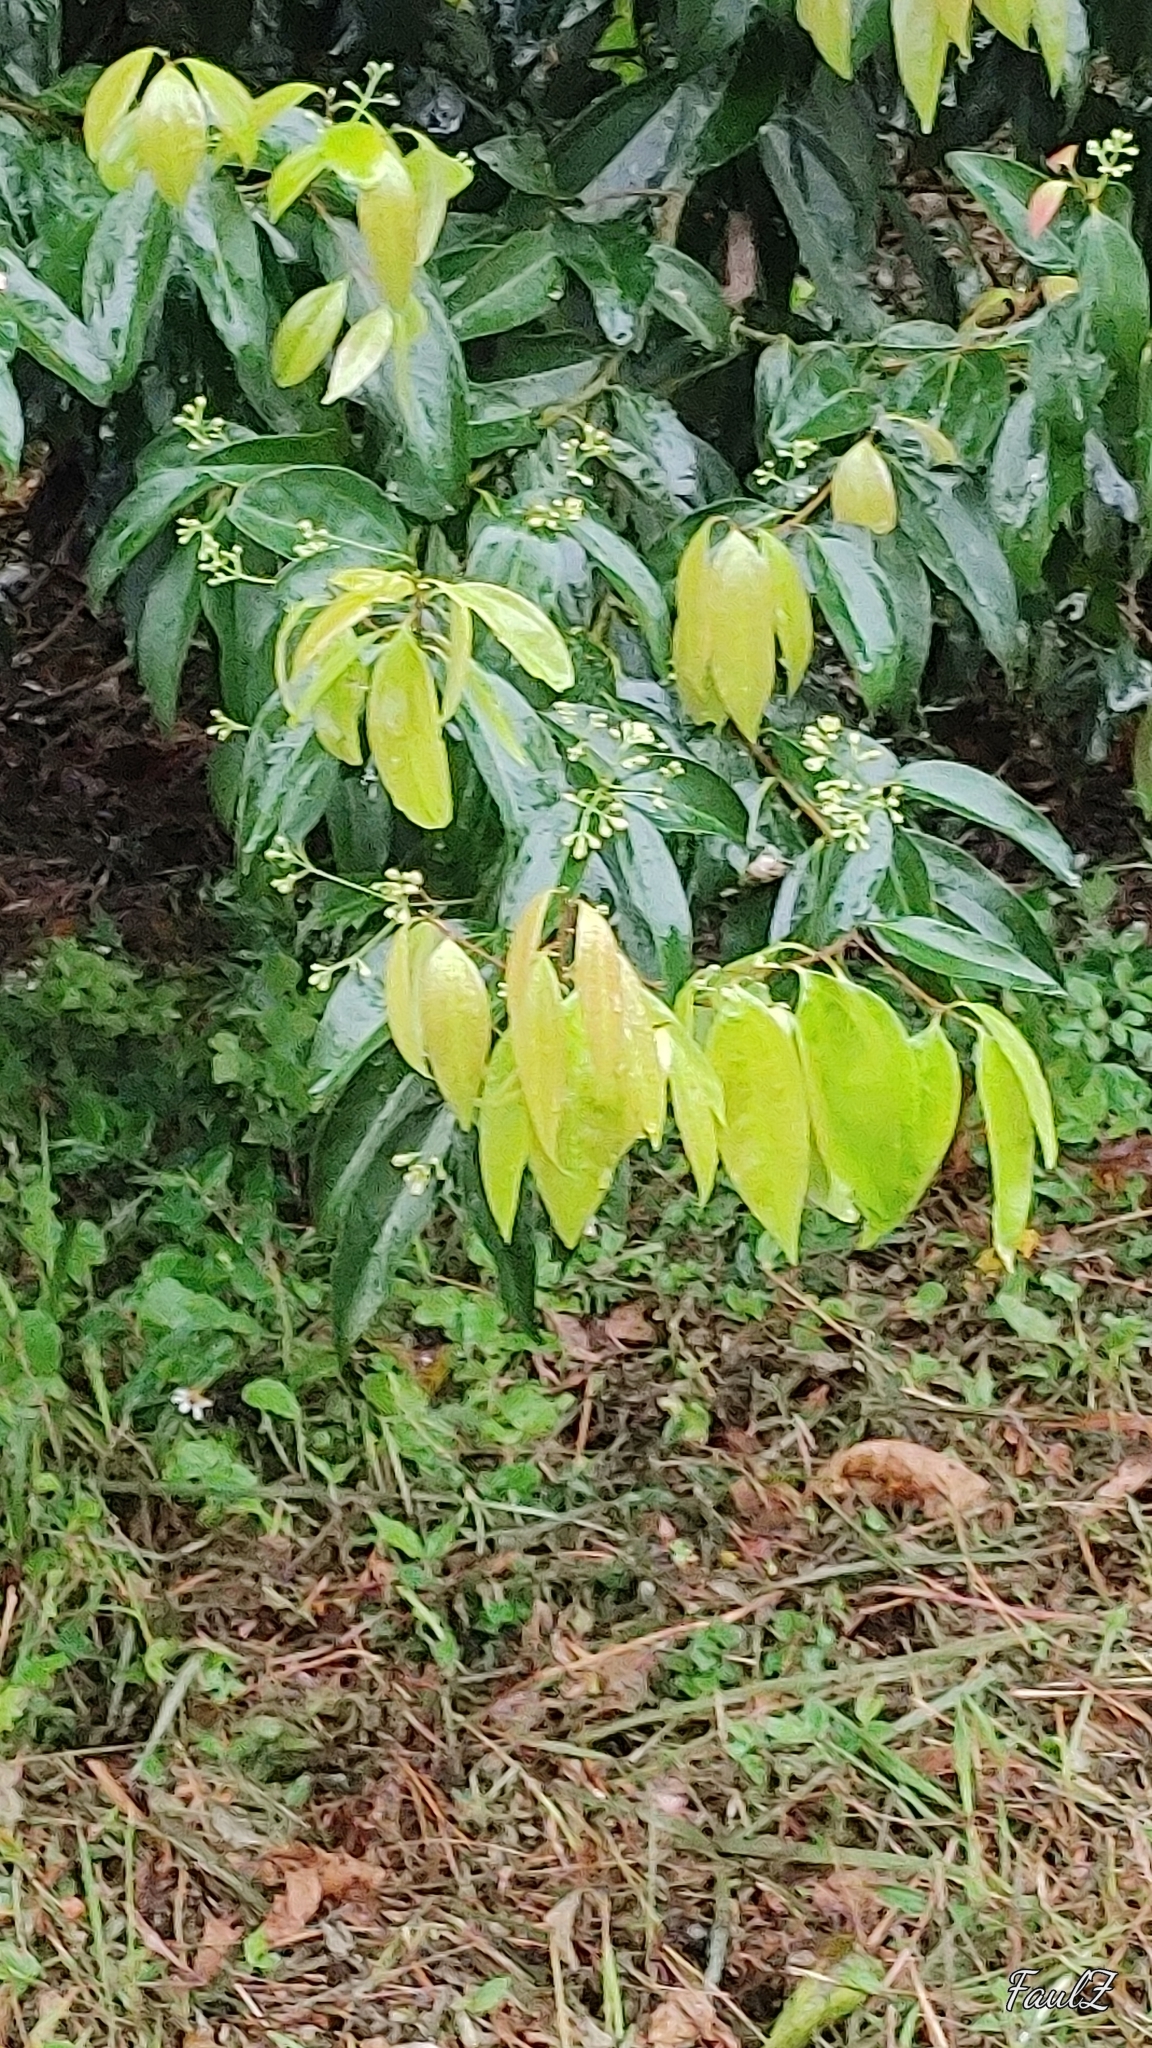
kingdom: Plantae
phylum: Tracheophyta
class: Magnoliopsida
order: Laurales
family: Lauraceae
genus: Cinnamomum
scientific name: Cinnamomum burmanni
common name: Padang cassia
